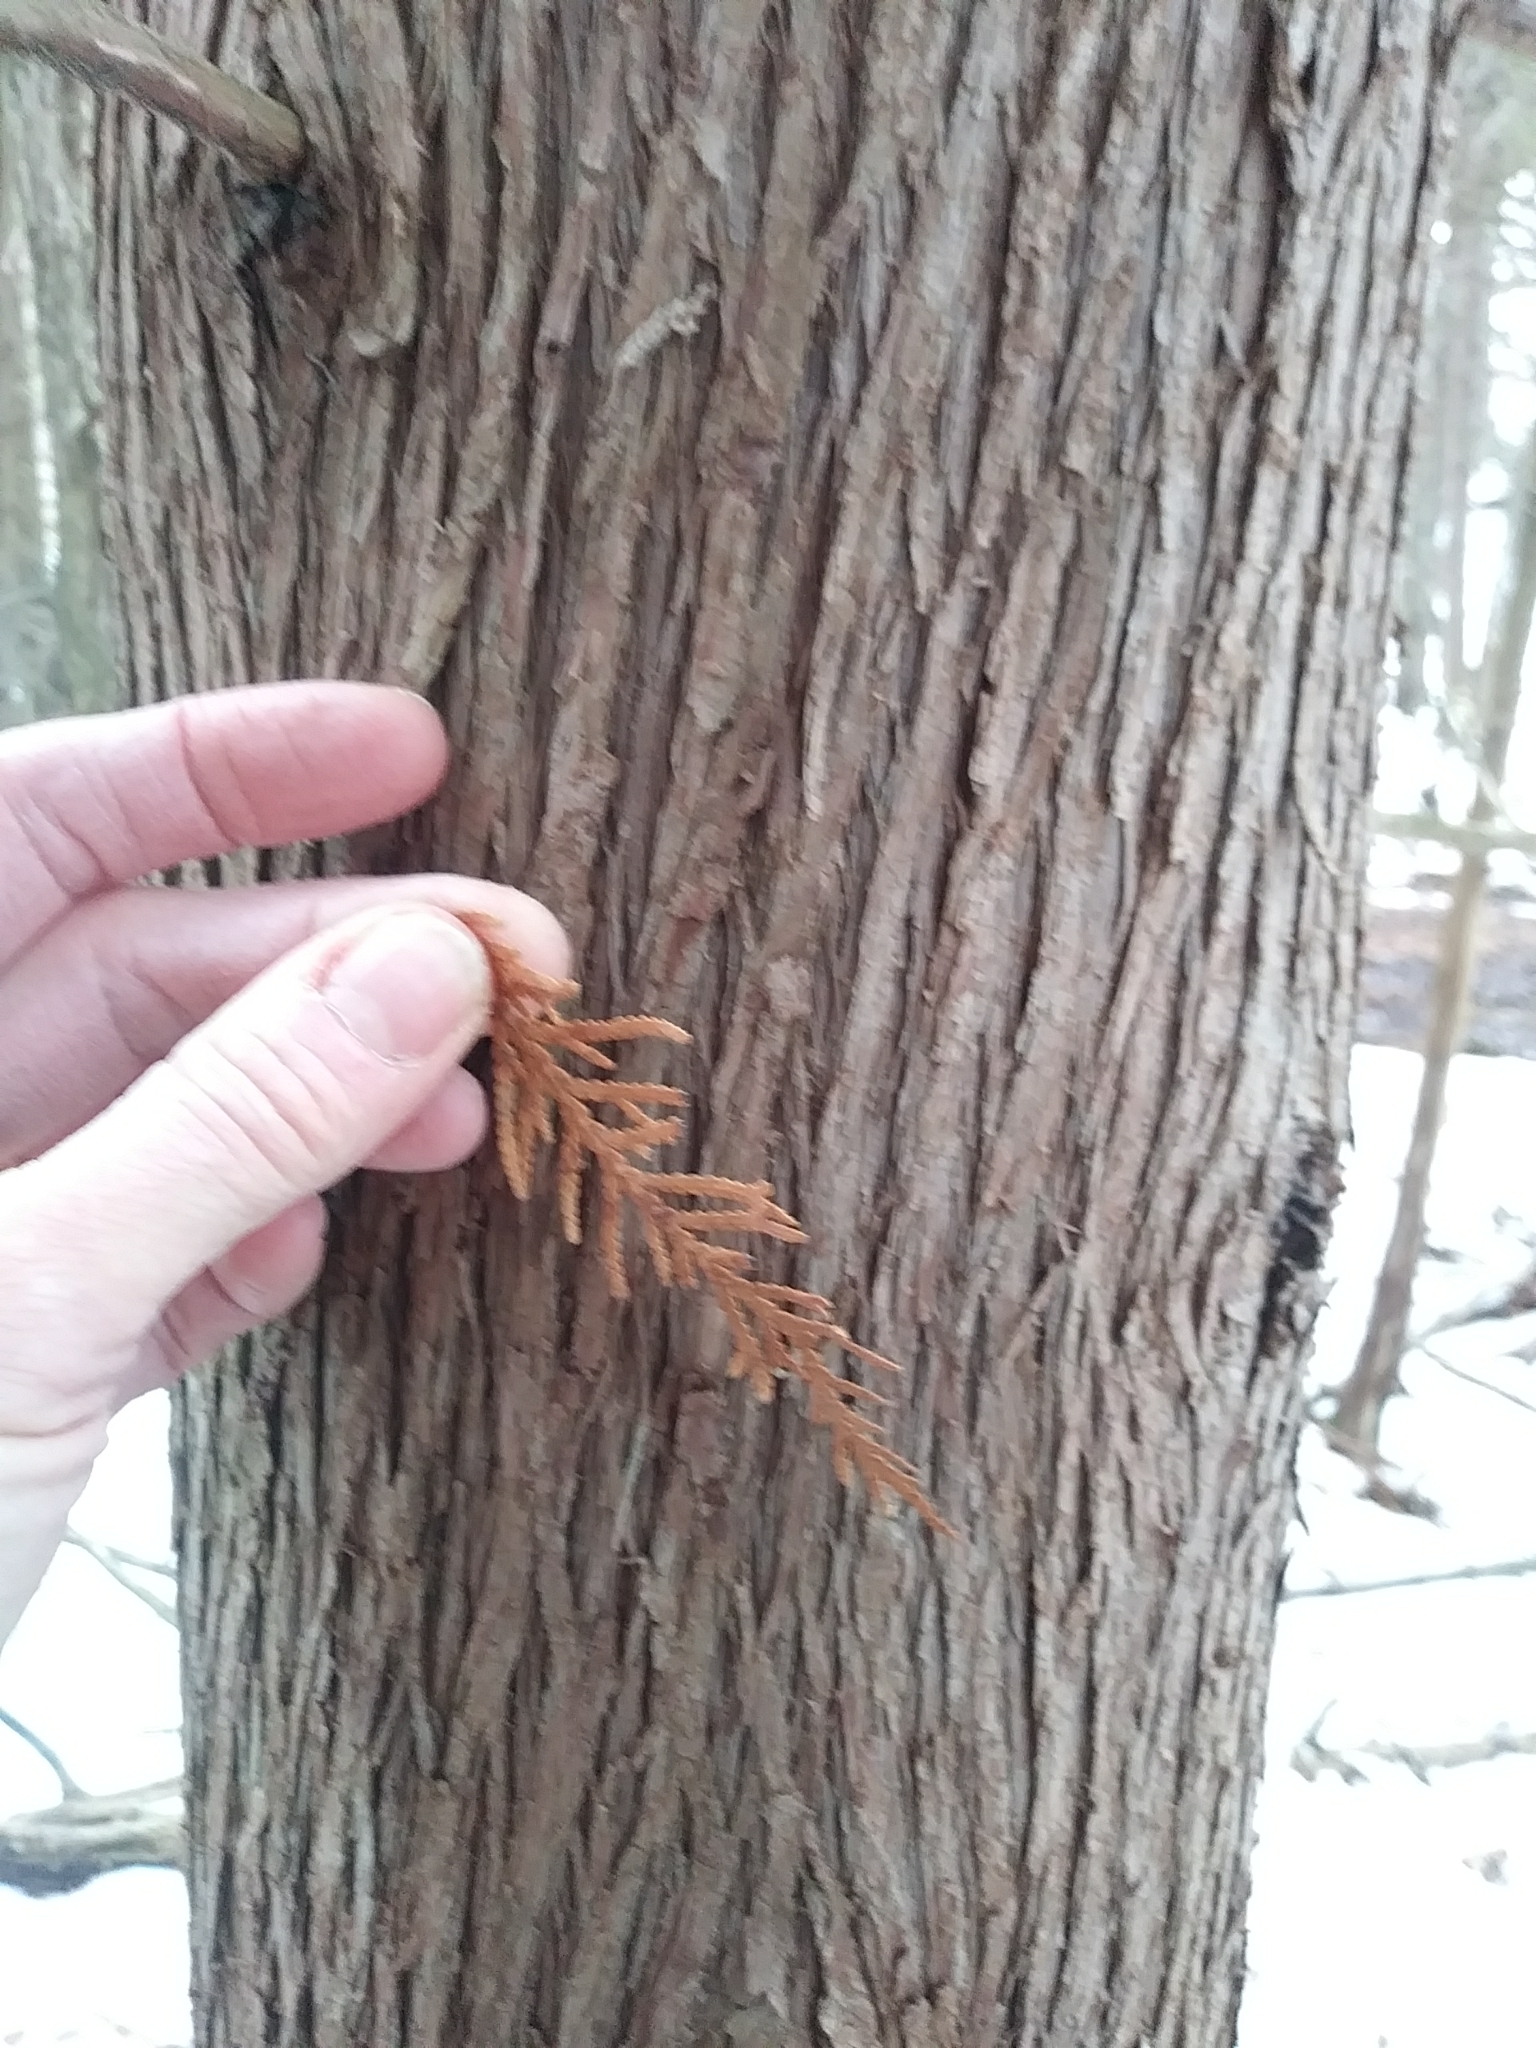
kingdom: Plantae
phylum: Tracheophyta
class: Pinopsida
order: Pinales
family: Cupressaceae
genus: Thuja
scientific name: Thuja occidentalis
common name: Northern white-cedar
